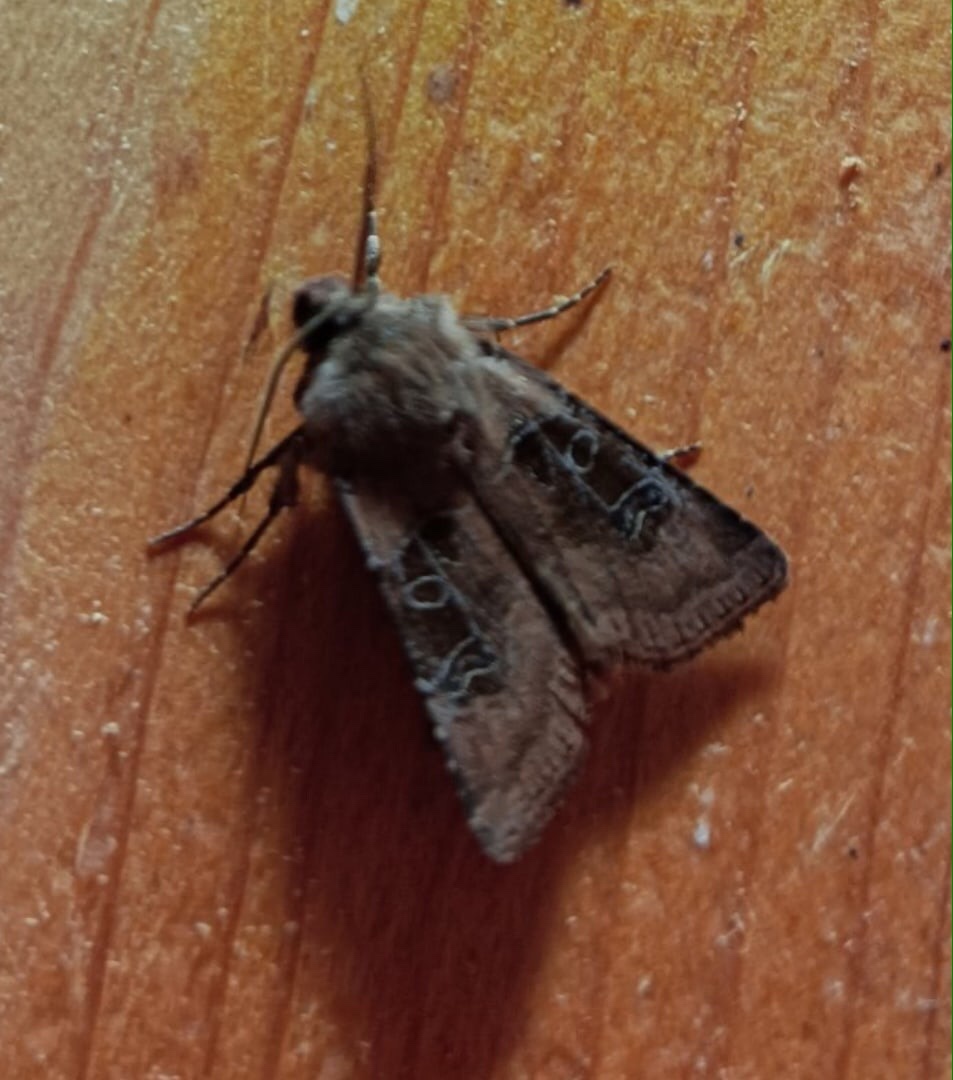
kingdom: Animalia
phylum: Arthropoda
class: Insecta
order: Lepidoptera
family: Noctuidae
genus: Chersotis
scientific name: Chersotis cuprea
